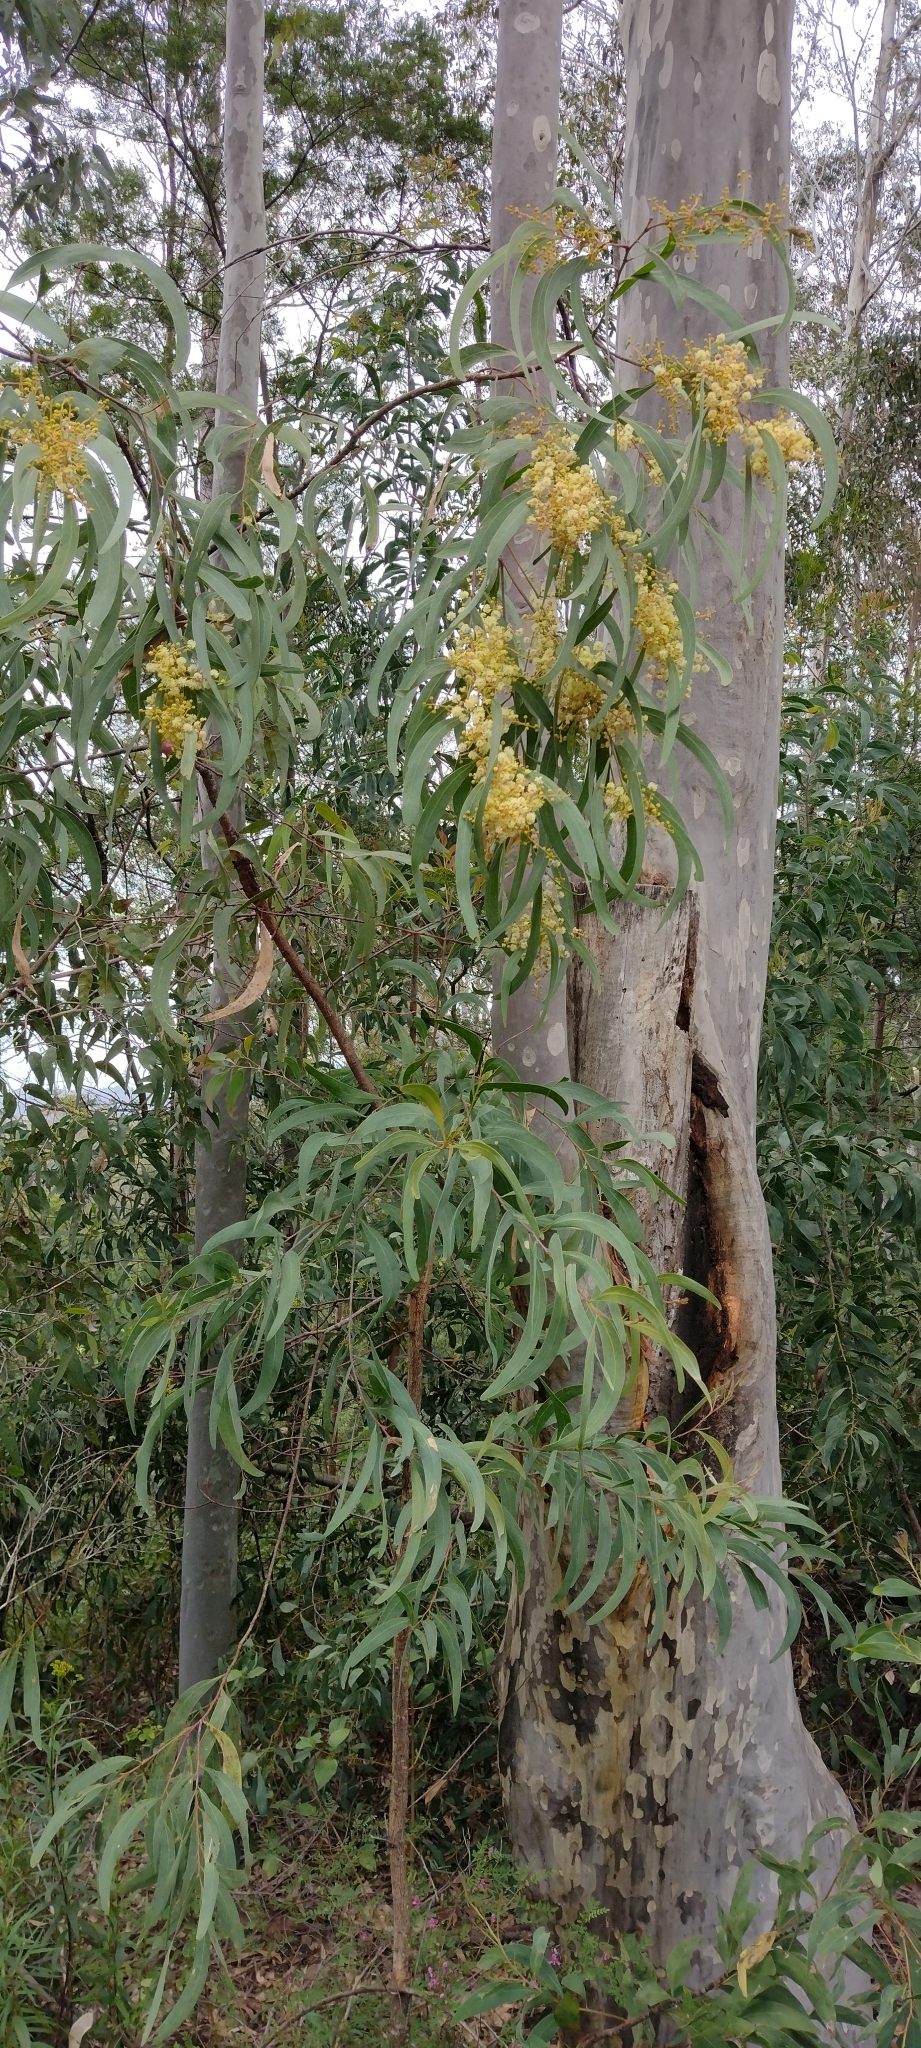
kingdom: Plantae
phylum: Tracheophyta
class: Magnoliopsida
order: Fabales
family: Fabaceae
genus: Acacia
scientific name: Acacia falciformis
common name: Tanning wattle
